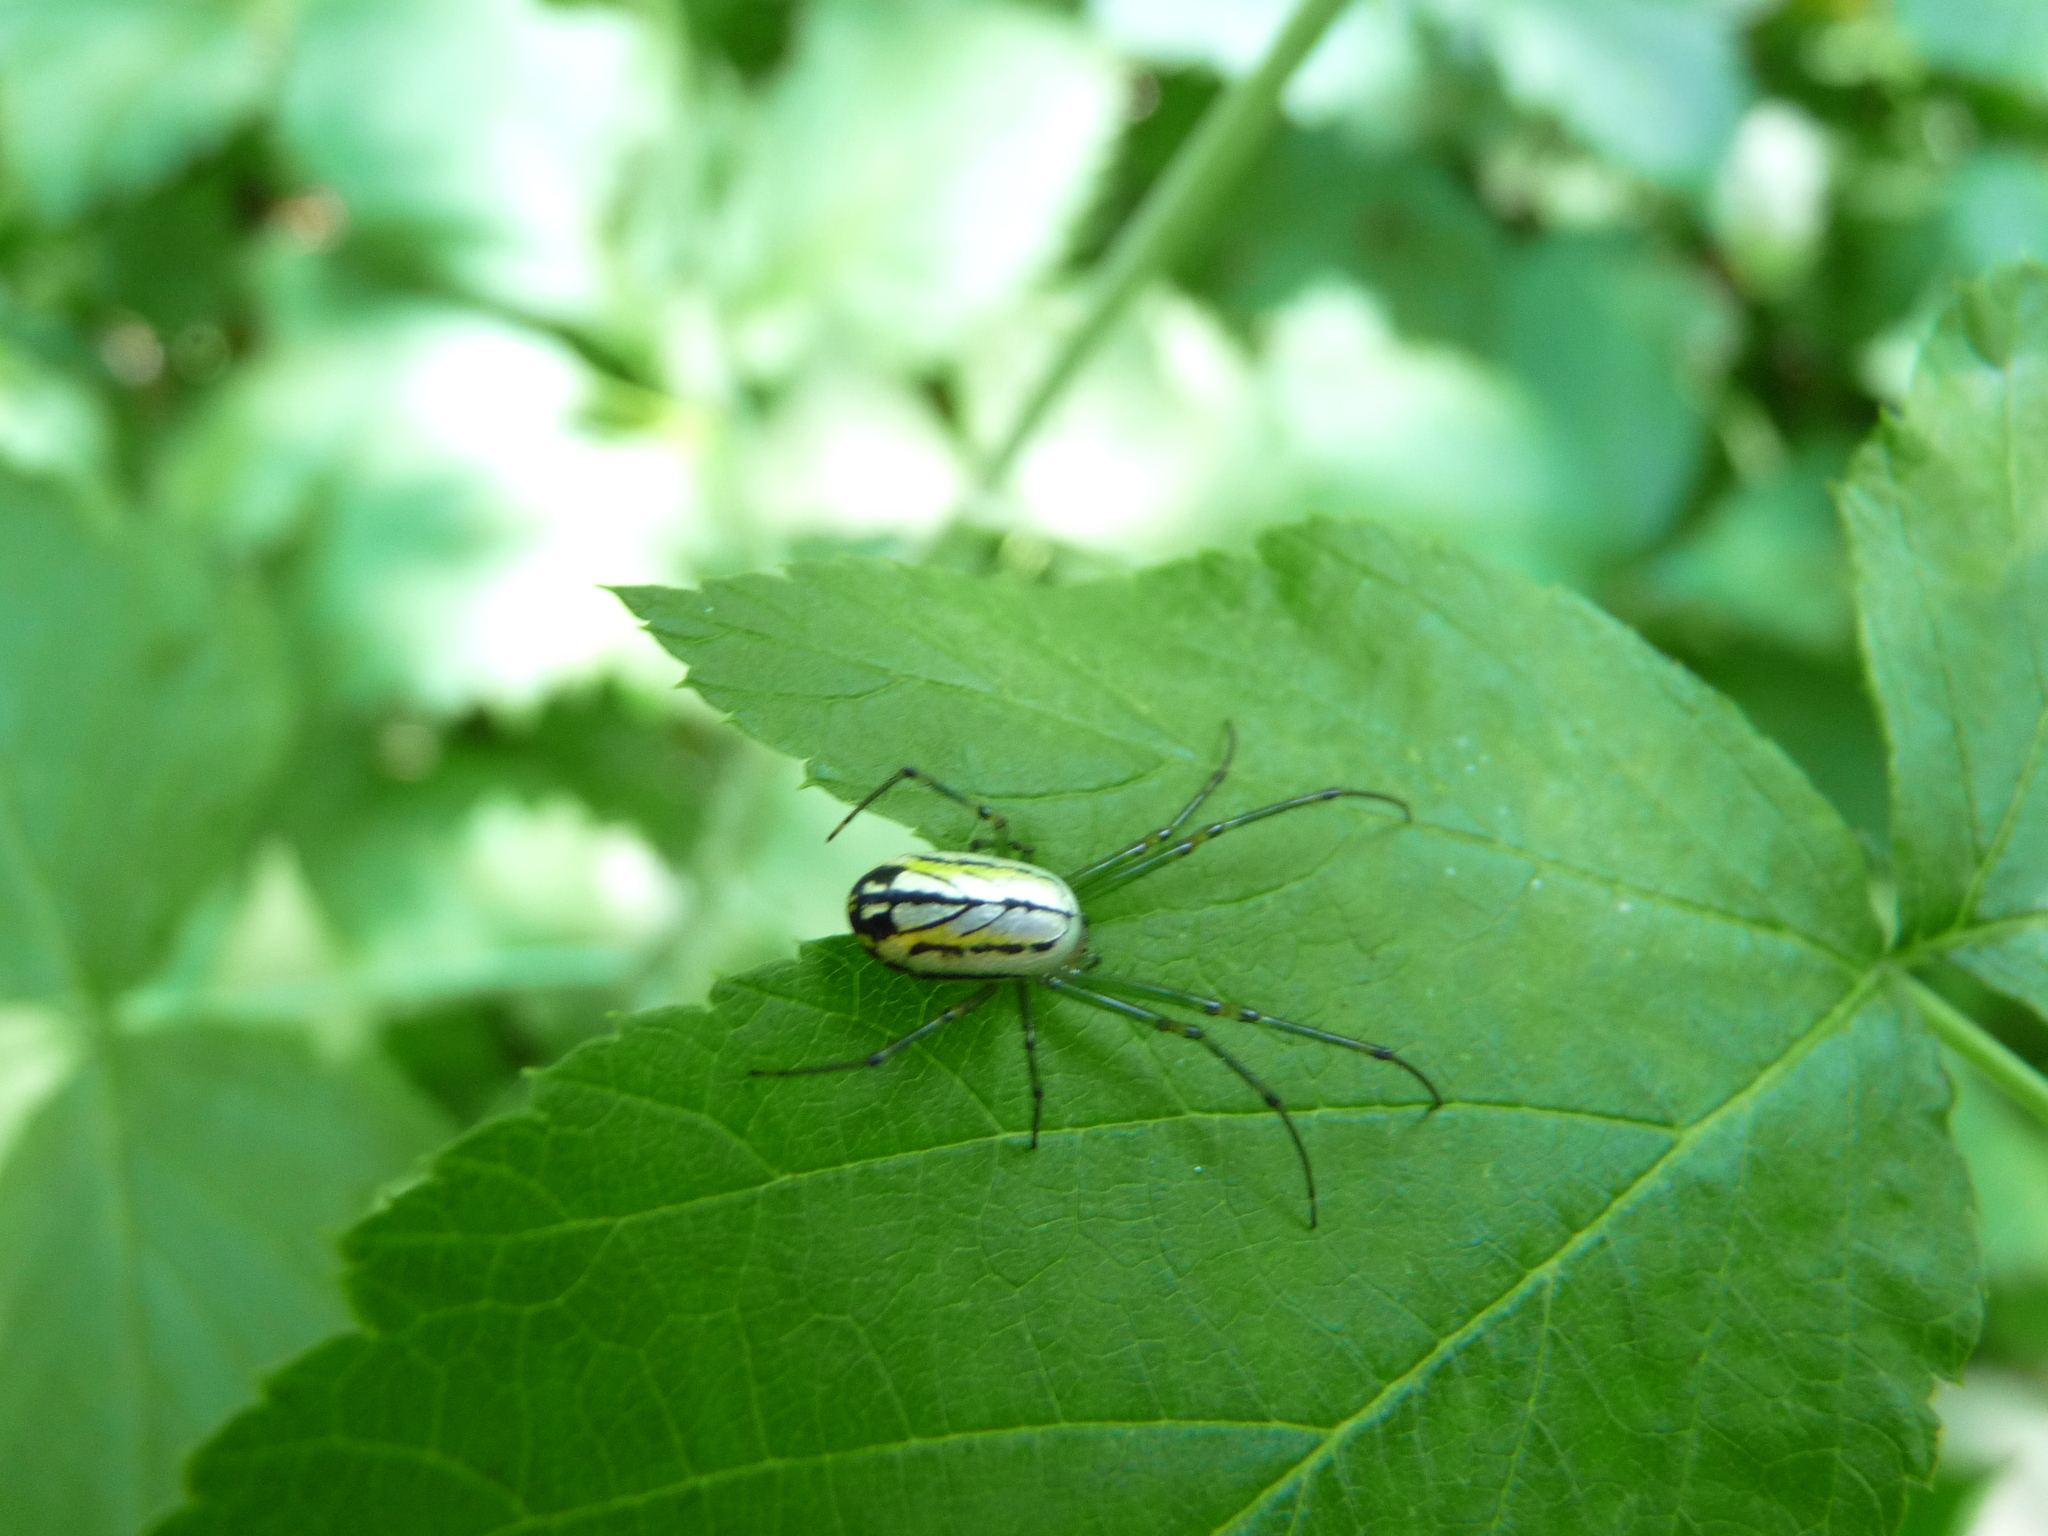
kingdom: Animalia
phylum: Arthropoda
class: Arachnida
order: Araneae
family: Tetragnathidae
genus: Leucauge
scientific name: Leucauge venusta
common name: Longjawed orb weavers
